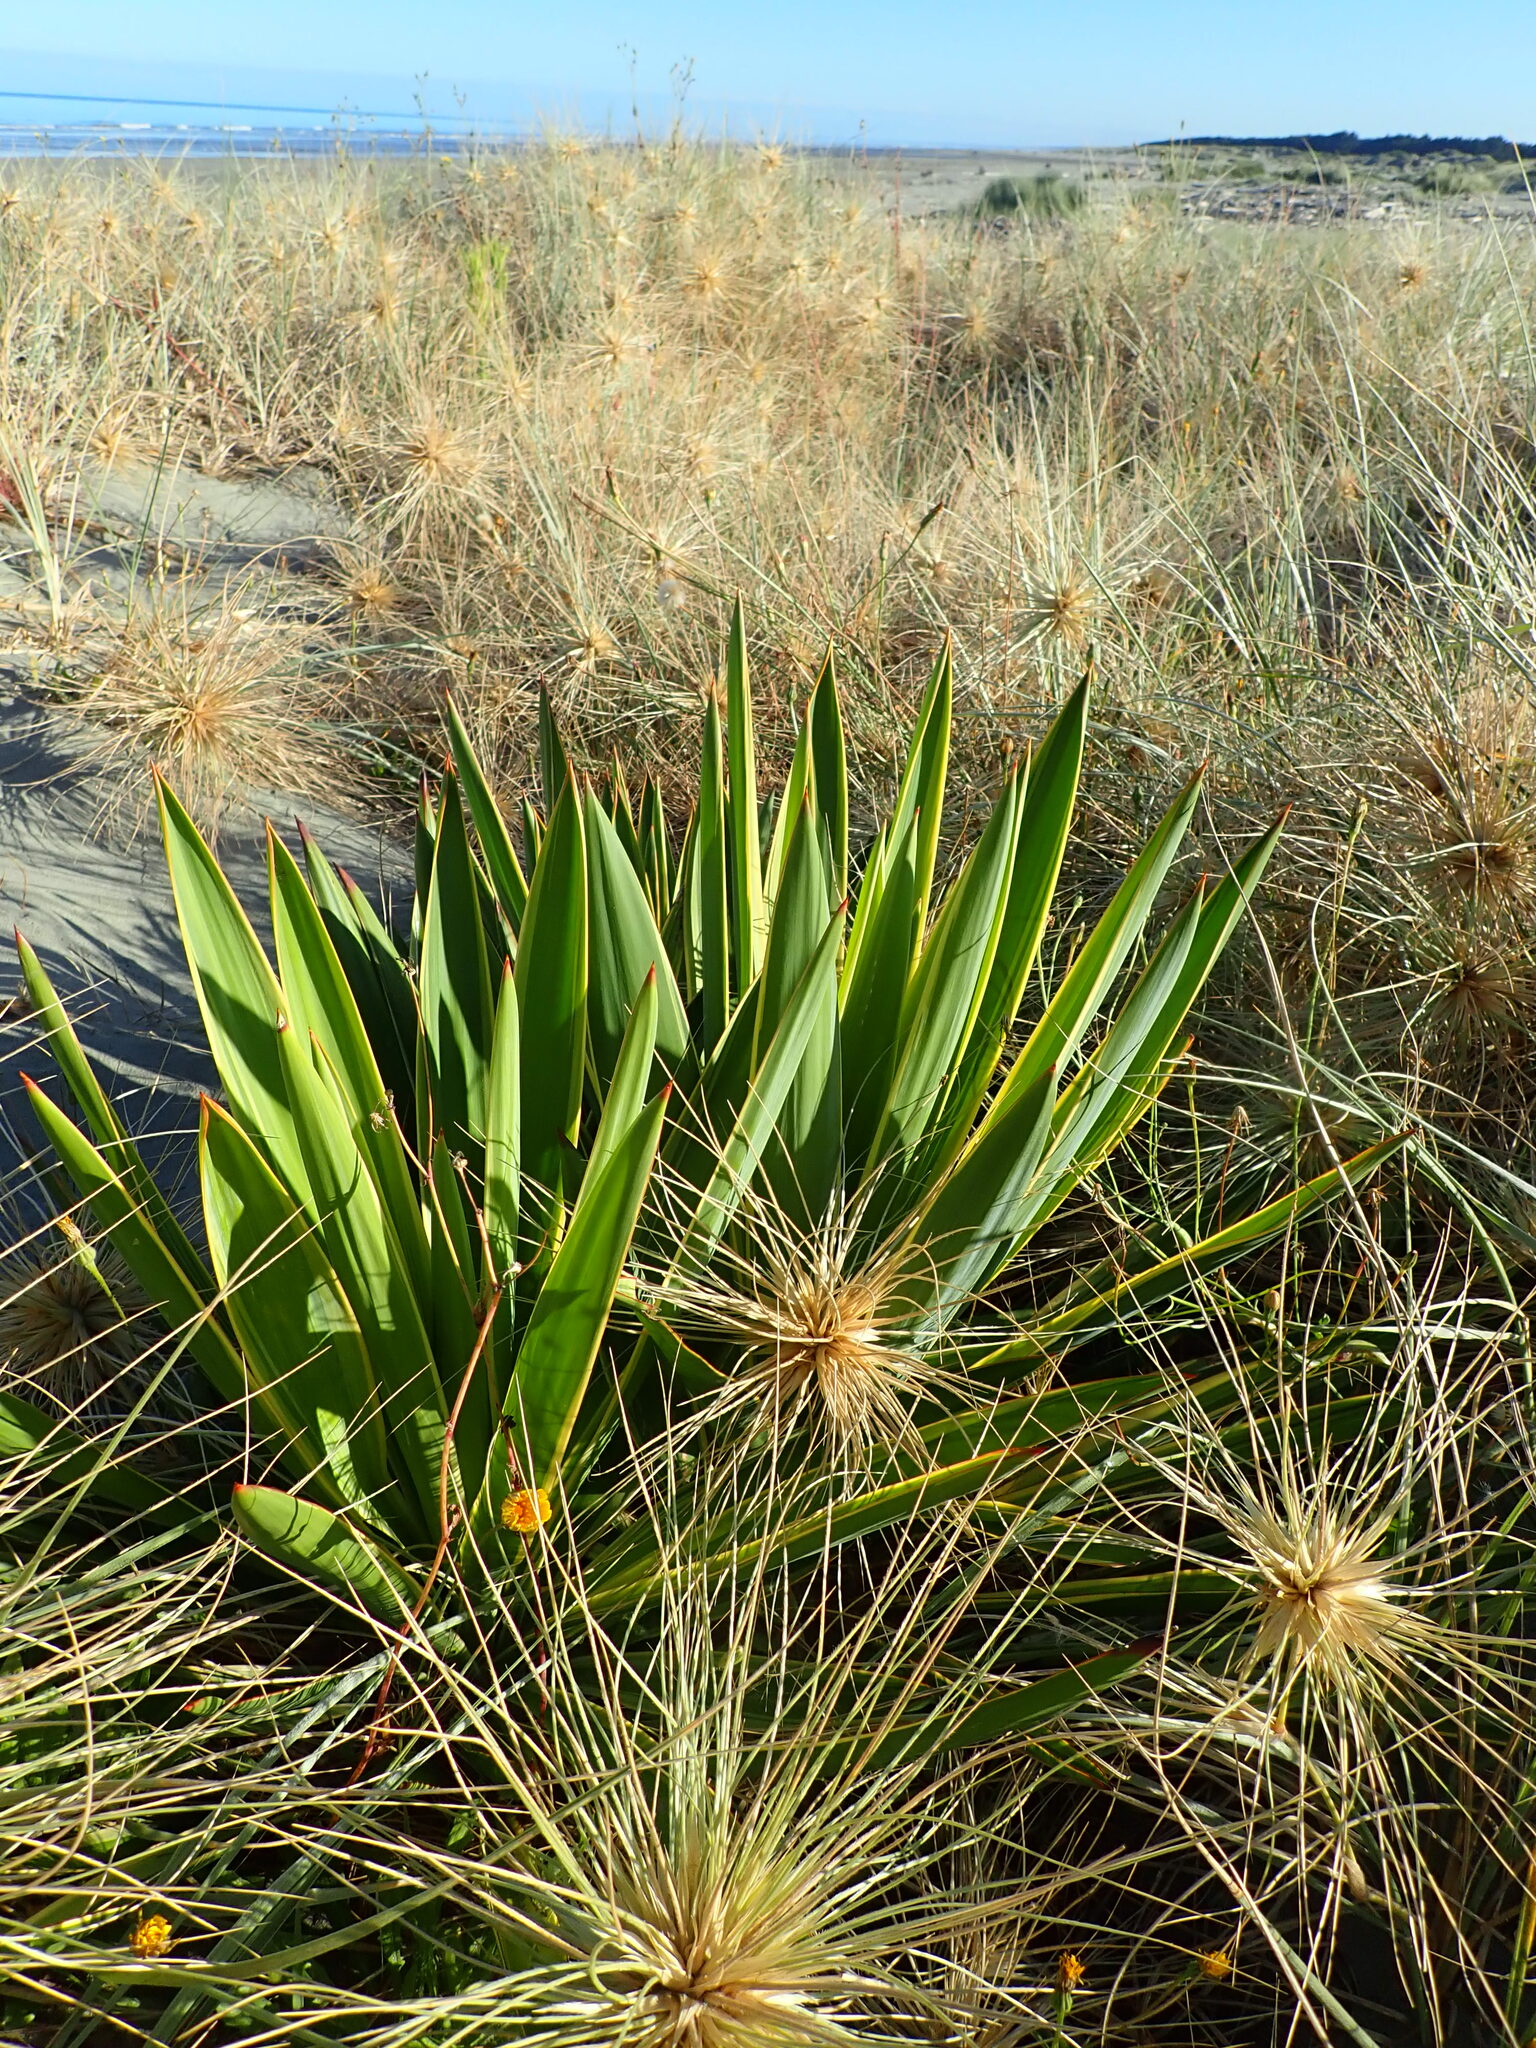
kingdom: Plantae
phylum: Tracheophyta
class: Liliopsida
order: Asparagales
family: Asparagaceae
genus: Yucca
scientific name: Yucca gloriosa
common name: Spanish-dagger
